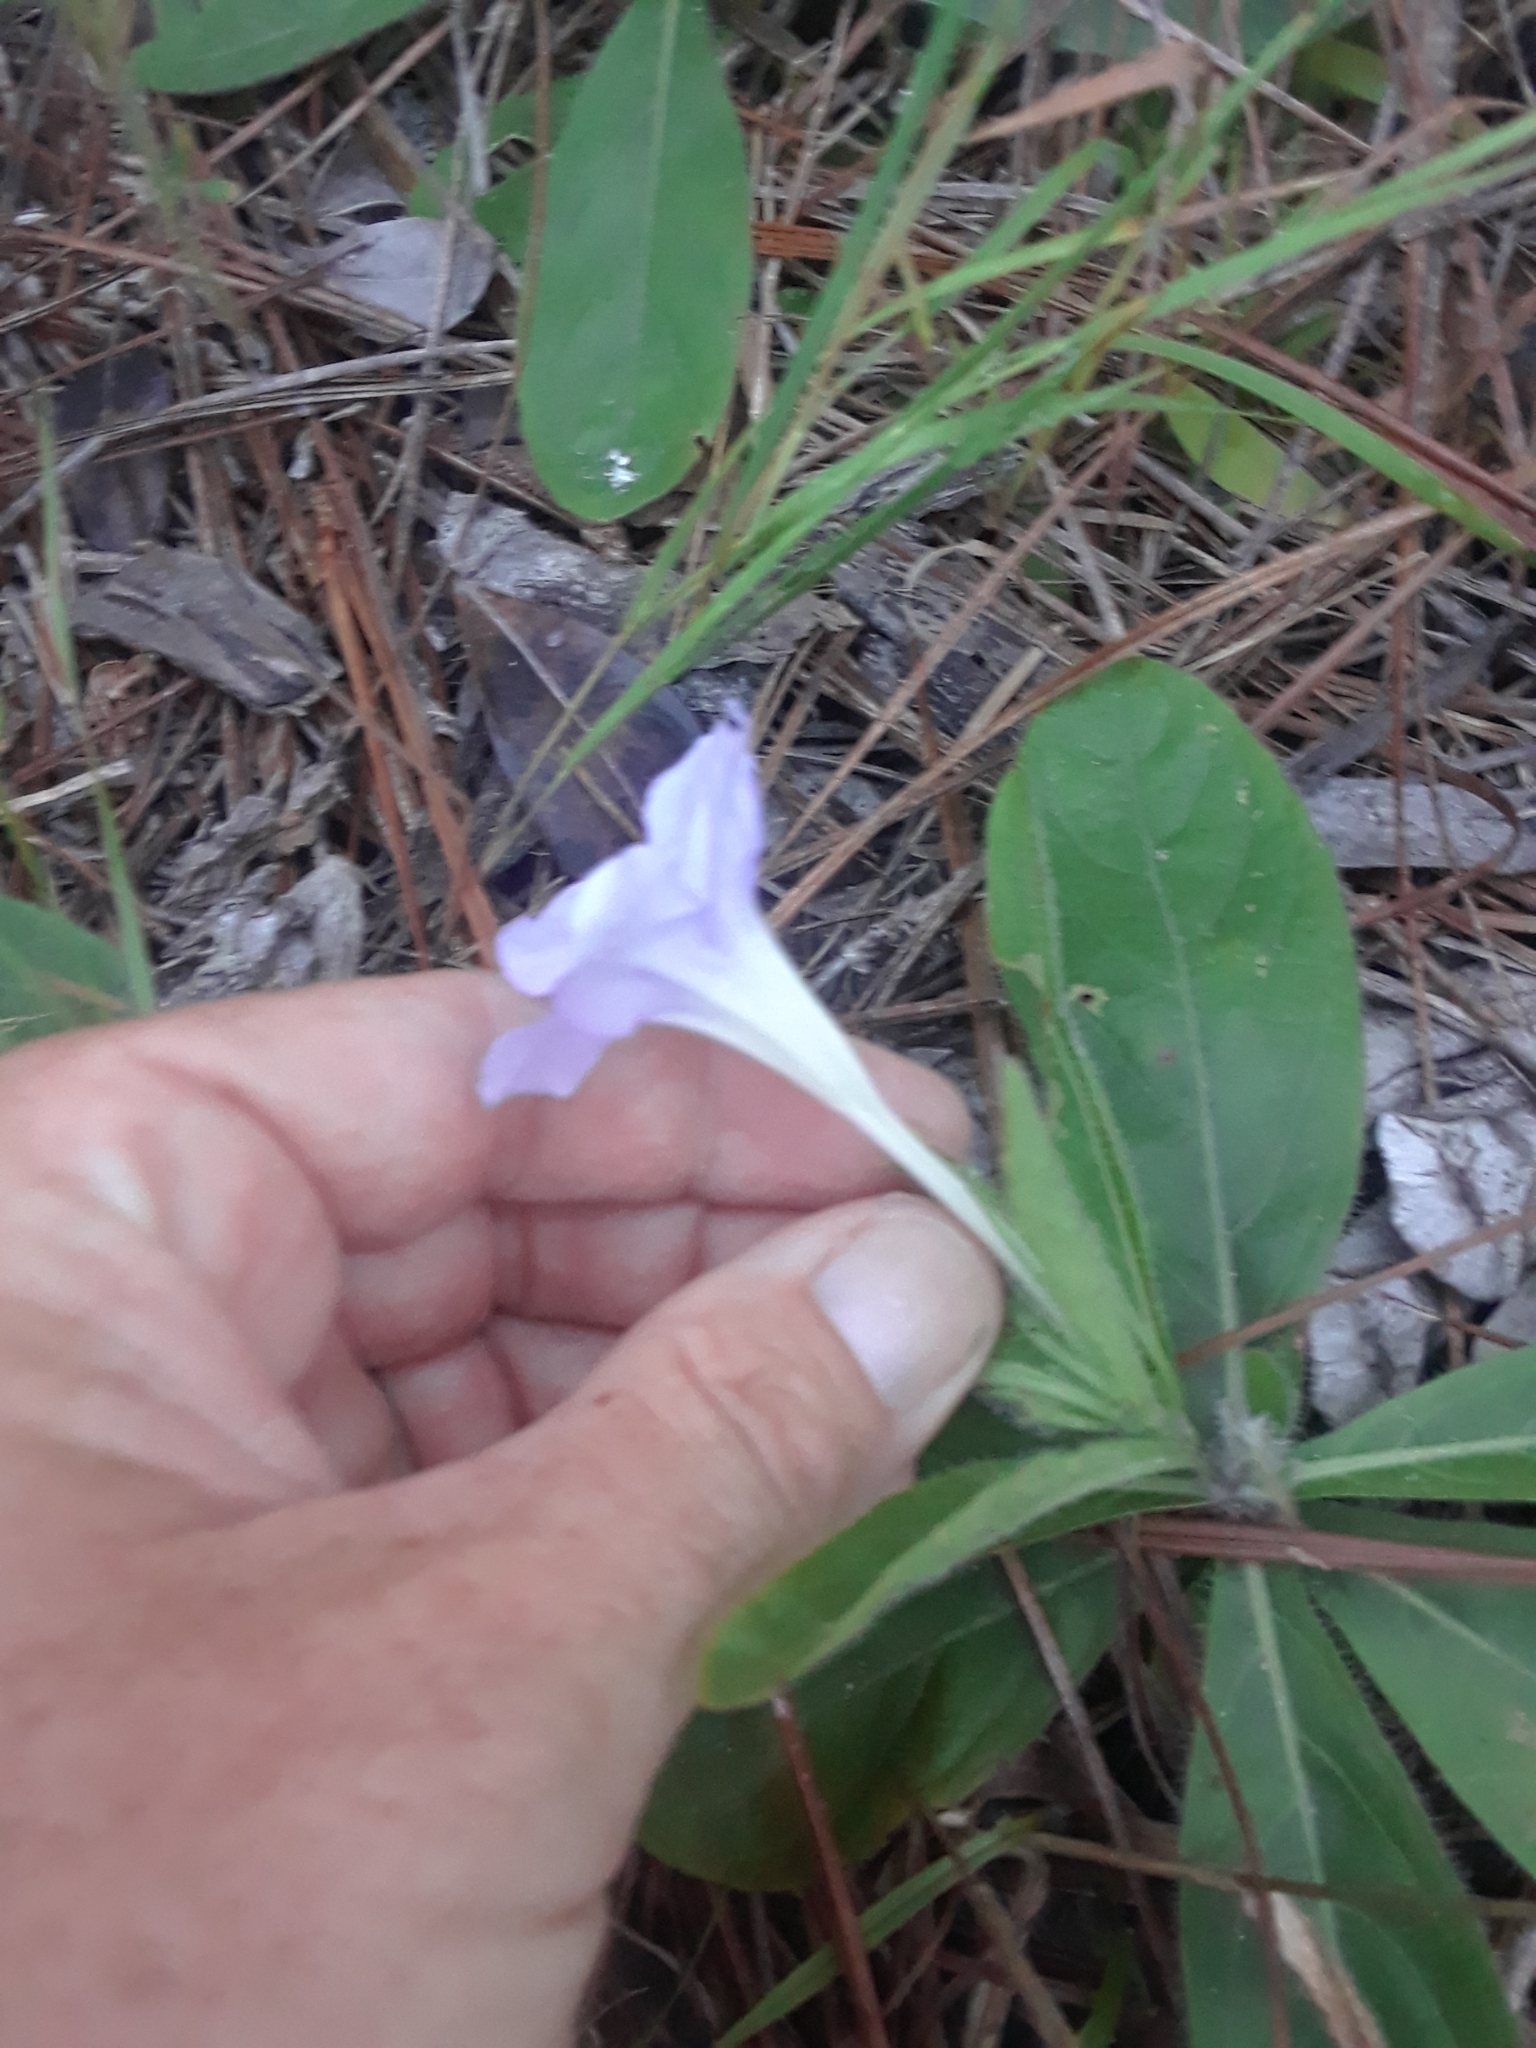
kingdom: Plantae
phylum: Tracheophyta
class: Magnoliopsida
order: Lamiales
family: Acanthaceae
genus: Ruellia
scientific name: Ruellia caroliniensis
